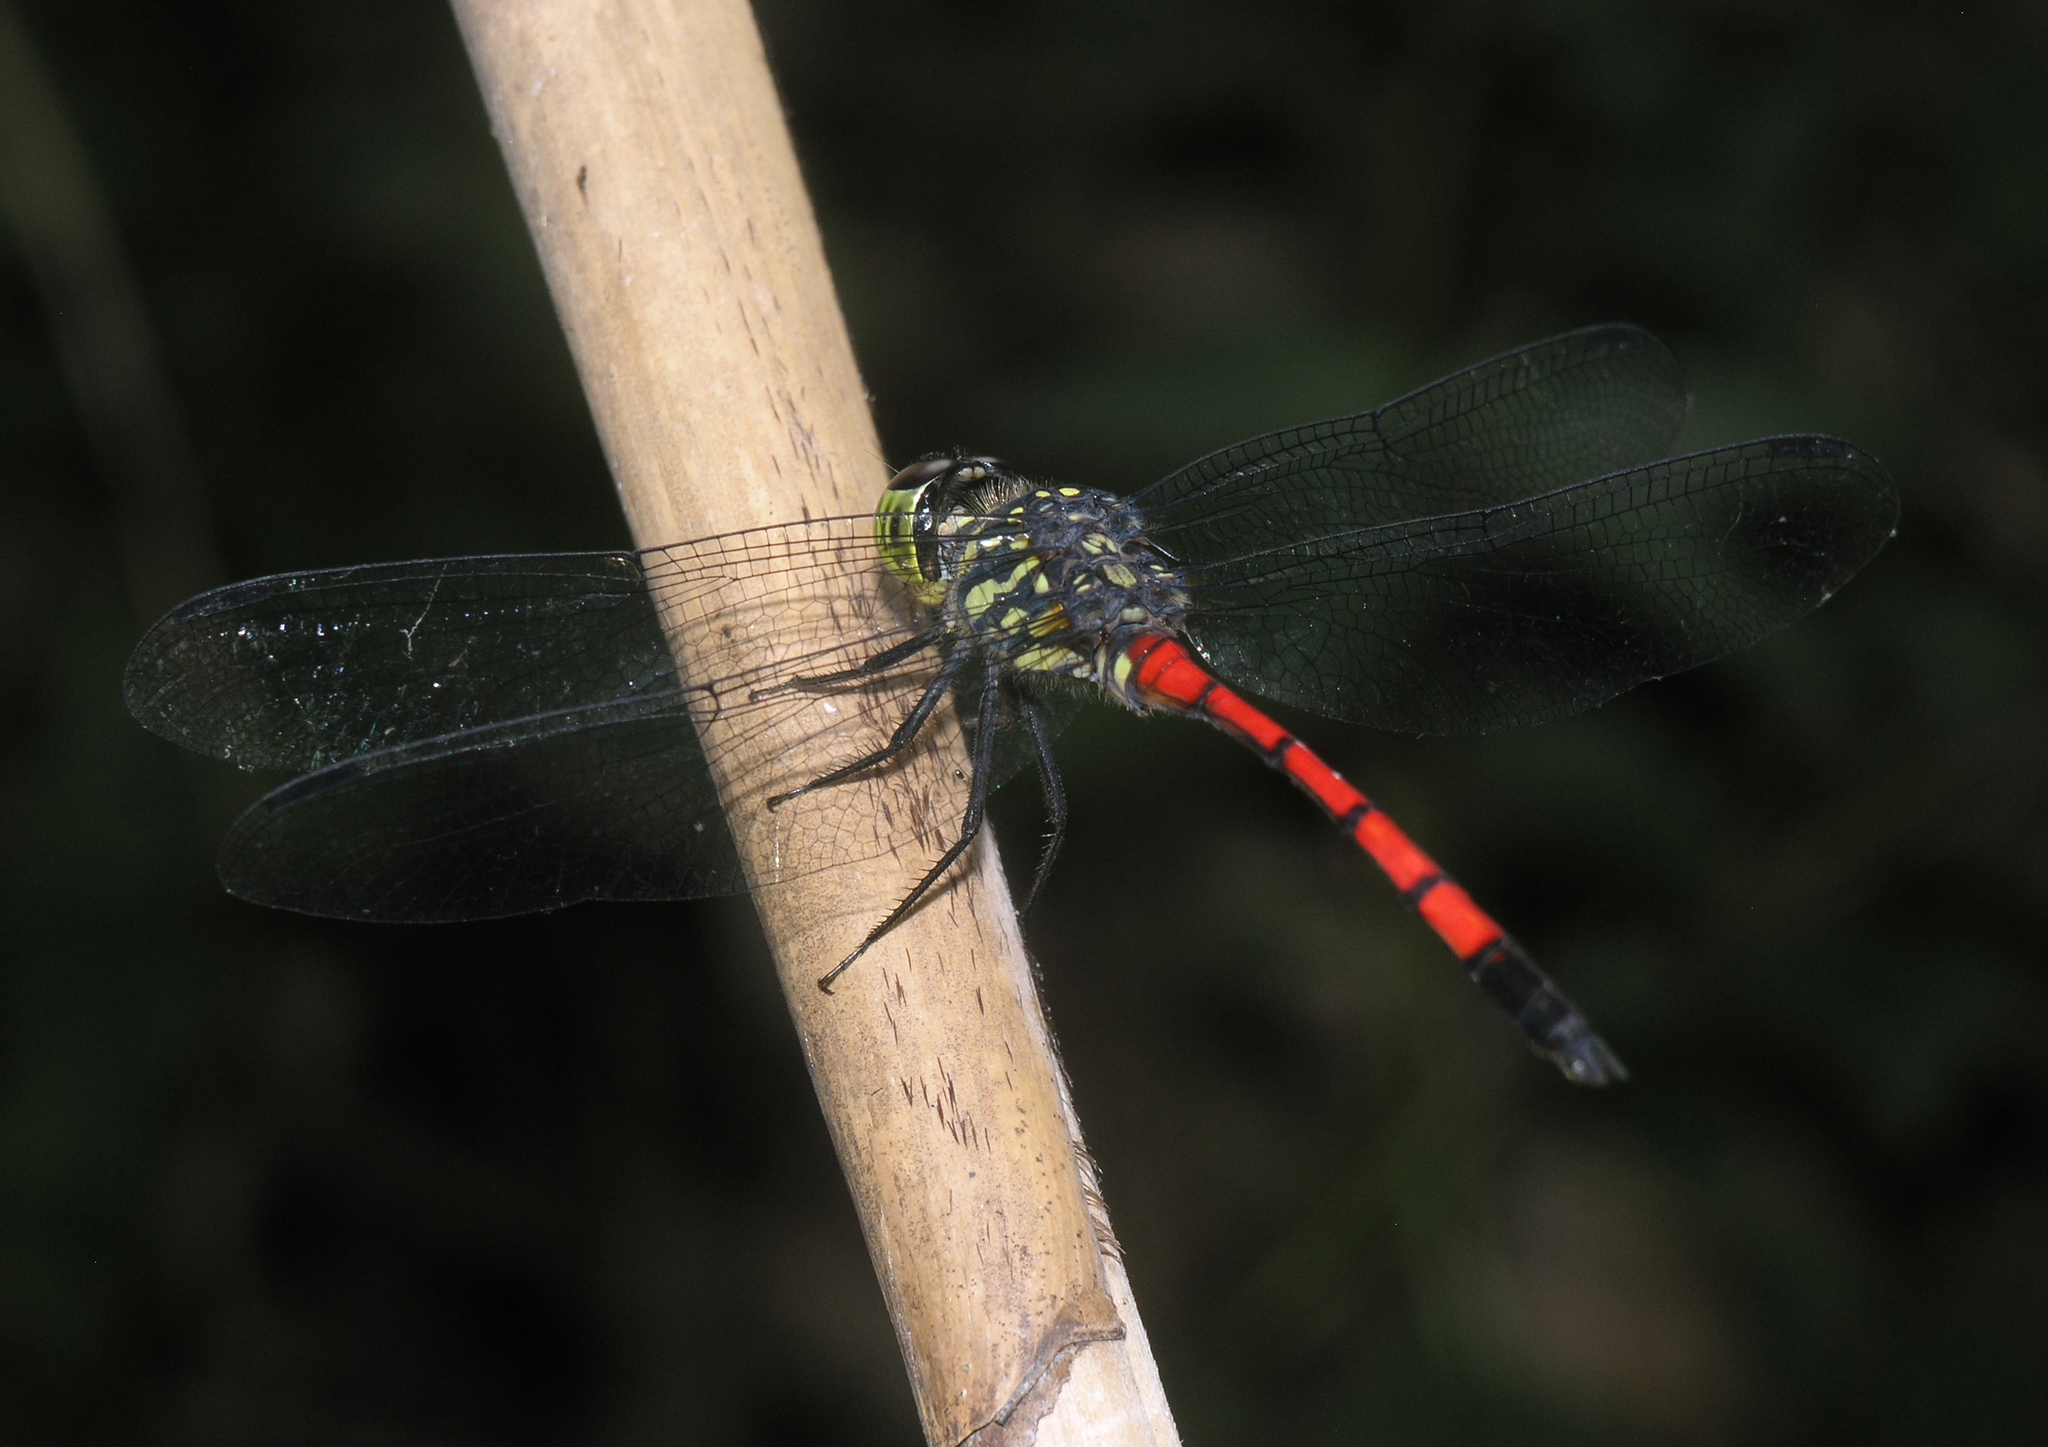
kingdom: Animalia
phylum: Arthropoda
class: Insecta
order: Odonata
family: Libellulidae
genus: Agrionoptera
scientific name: Agrionoptera insignis
